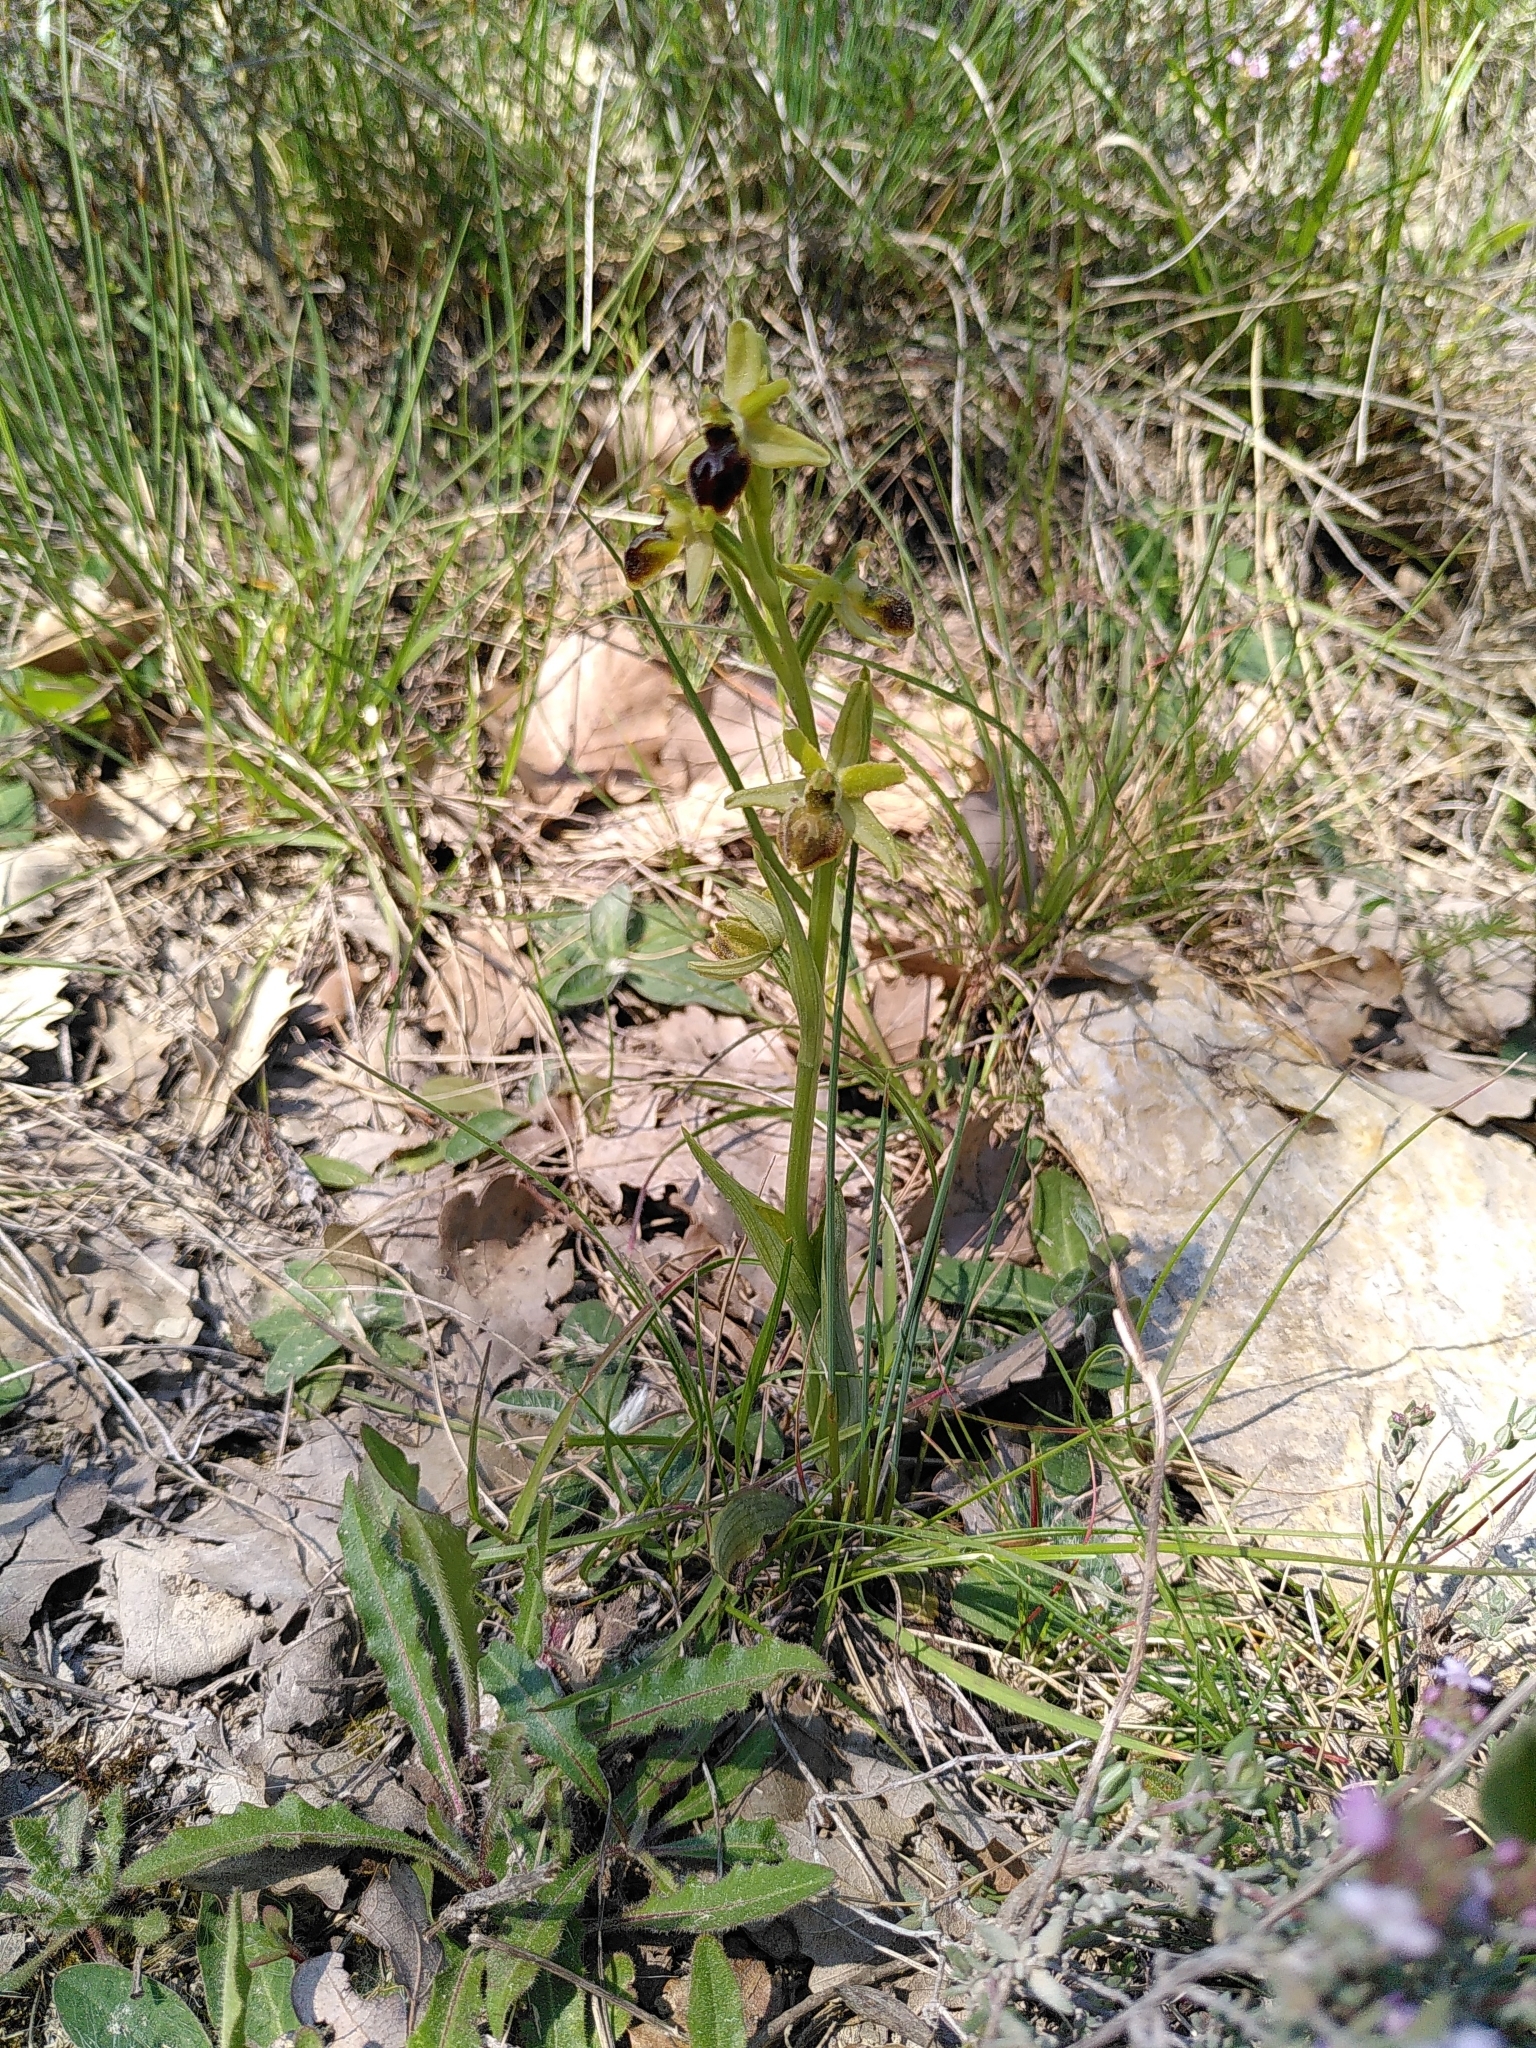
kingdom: Plantae
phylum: Tracheophyta
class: Liliopsida
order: Asparagales
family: Orchidaceae
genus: Ophrys
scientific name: Ophrys sphegodes
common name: Early spider-orchid
